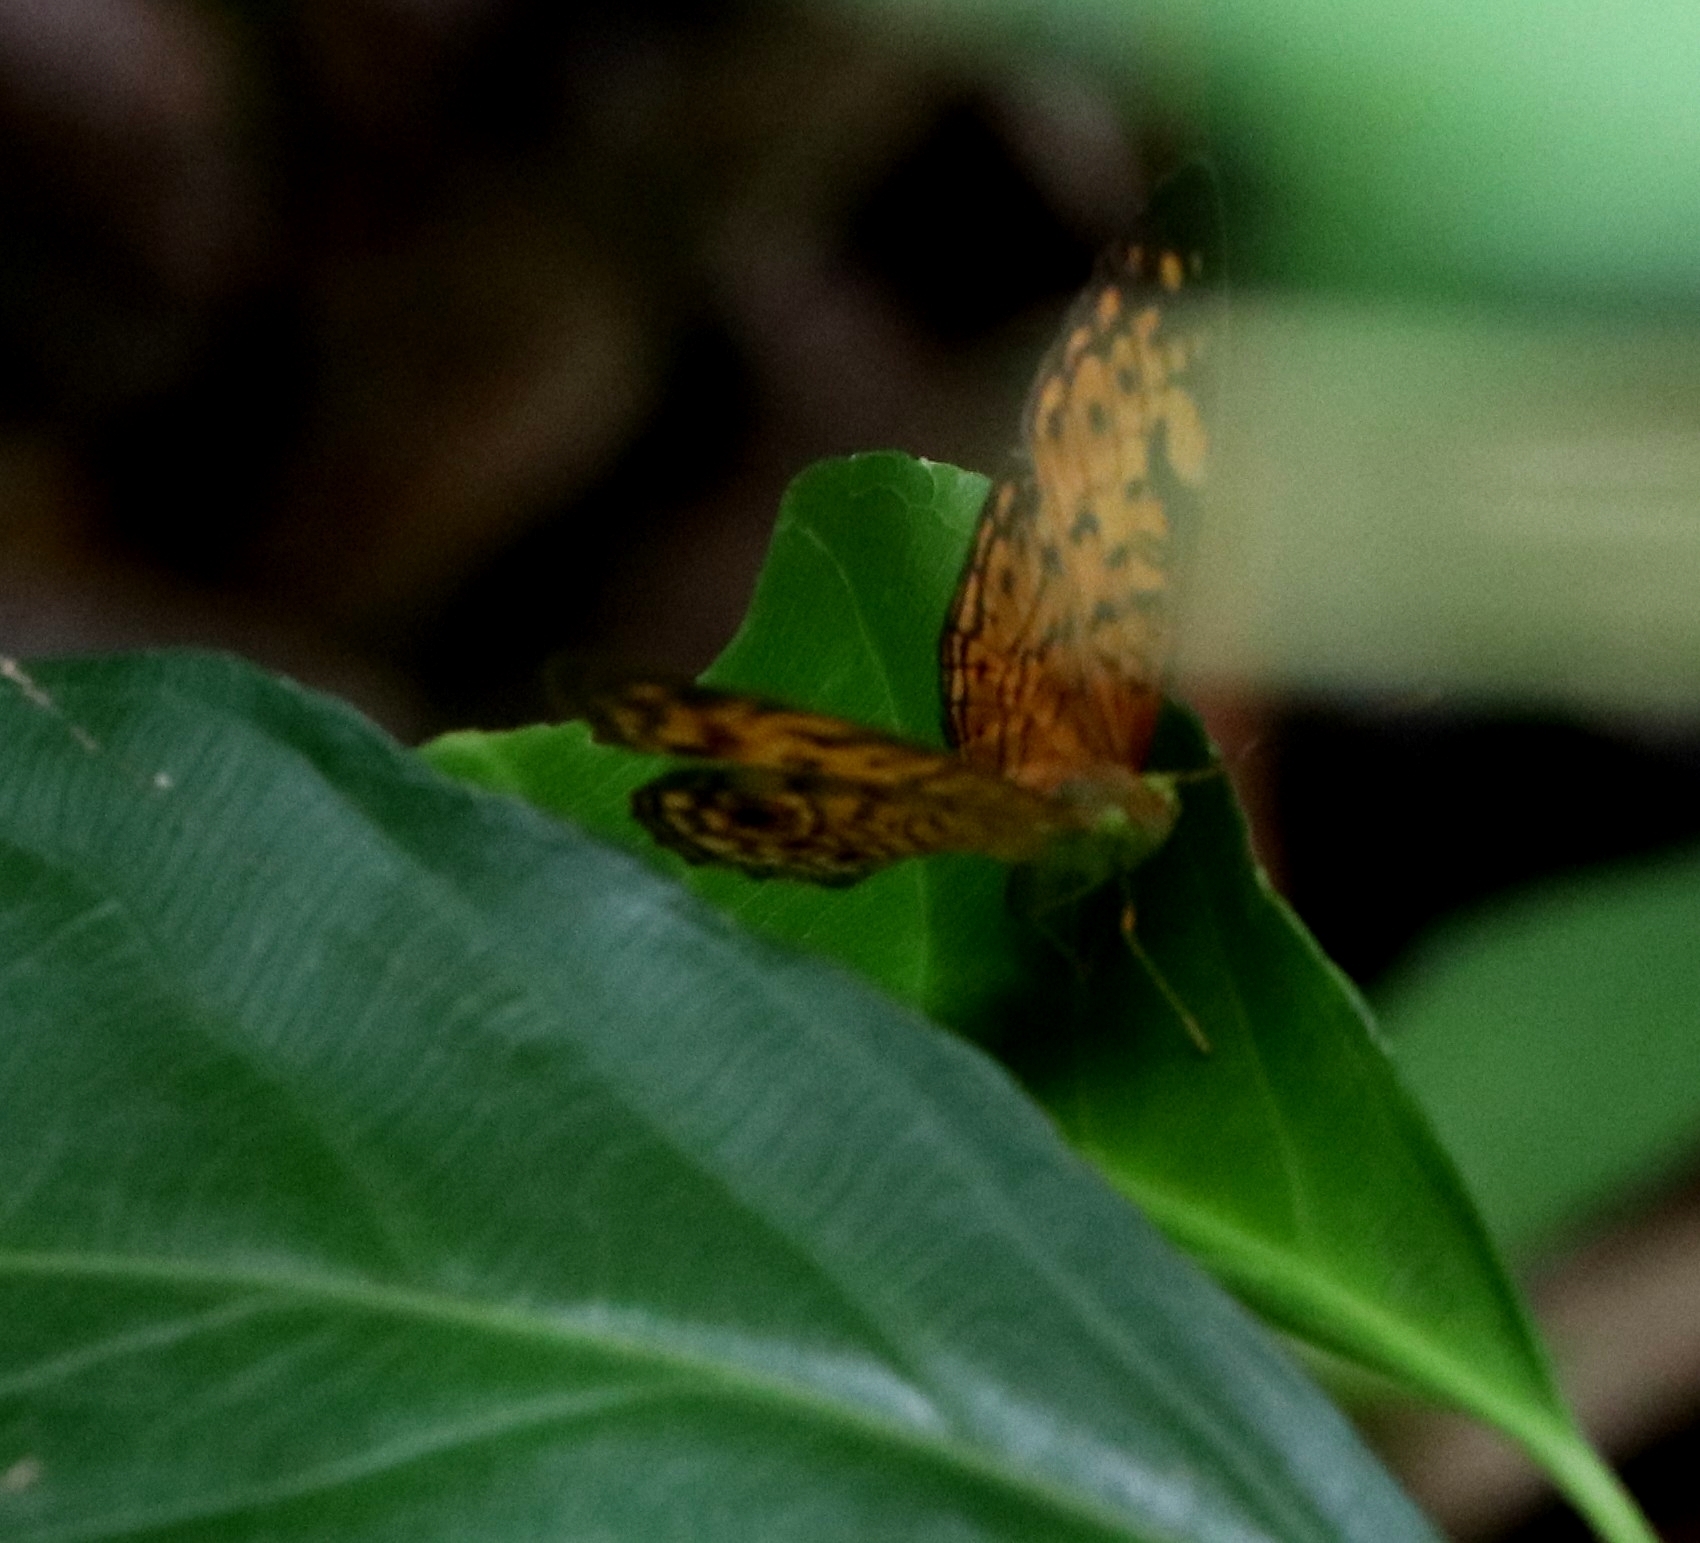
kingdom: Animalia
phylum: Arthropoda
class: Insecta
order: Lepidoptera
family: Nymphalidae
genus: Phalanta
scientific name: Phalanta alcippe
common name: Small leopard
